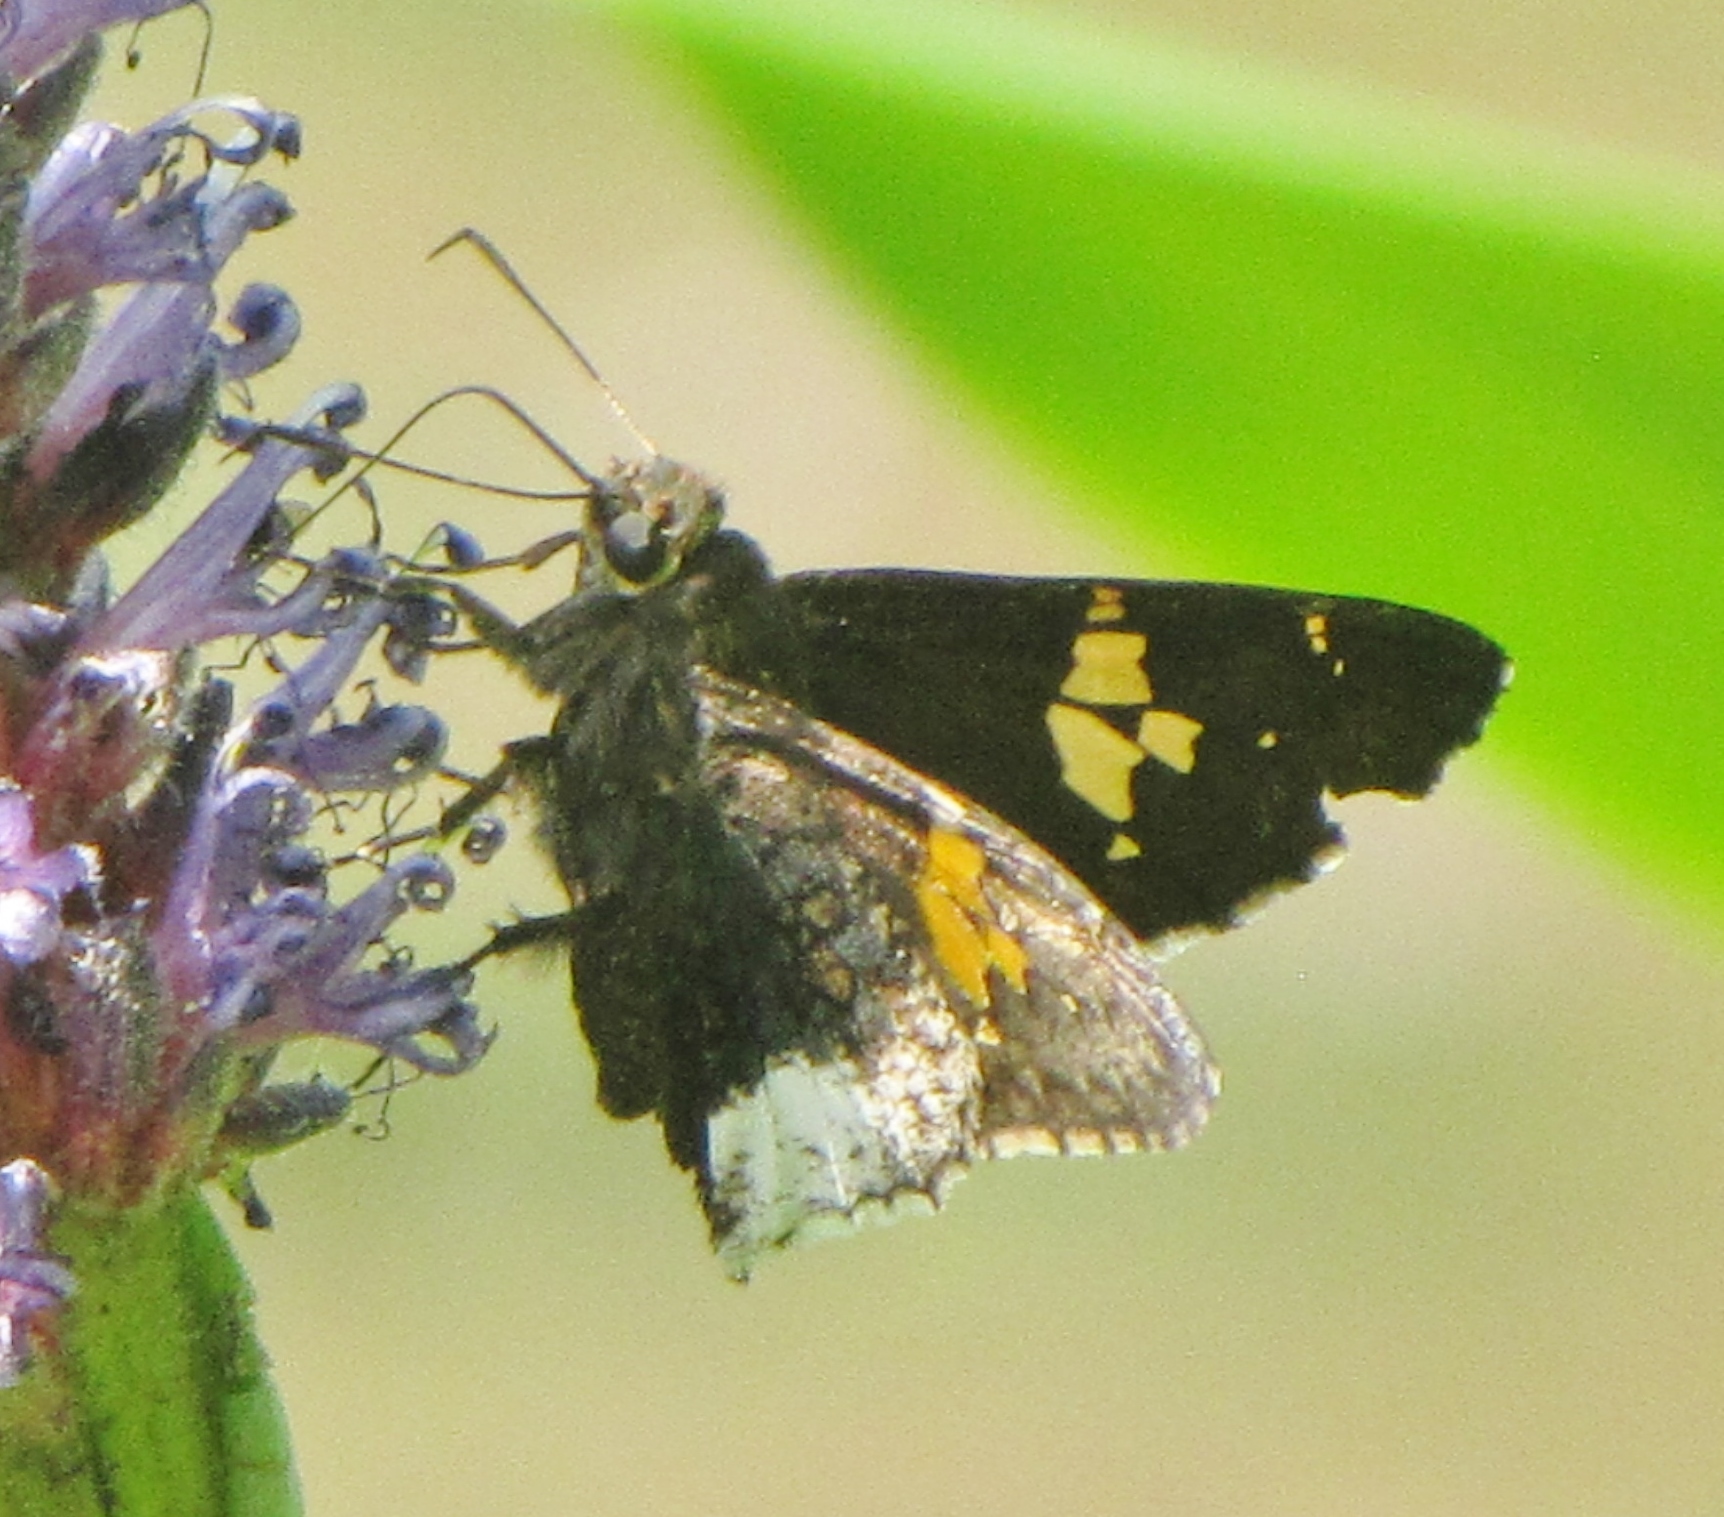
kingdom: Animalia
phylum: Arthropoda
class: Insecta
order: Lepidoptera
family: Hesperiidae
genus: Thorybes
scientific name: Thorybes lyciades
